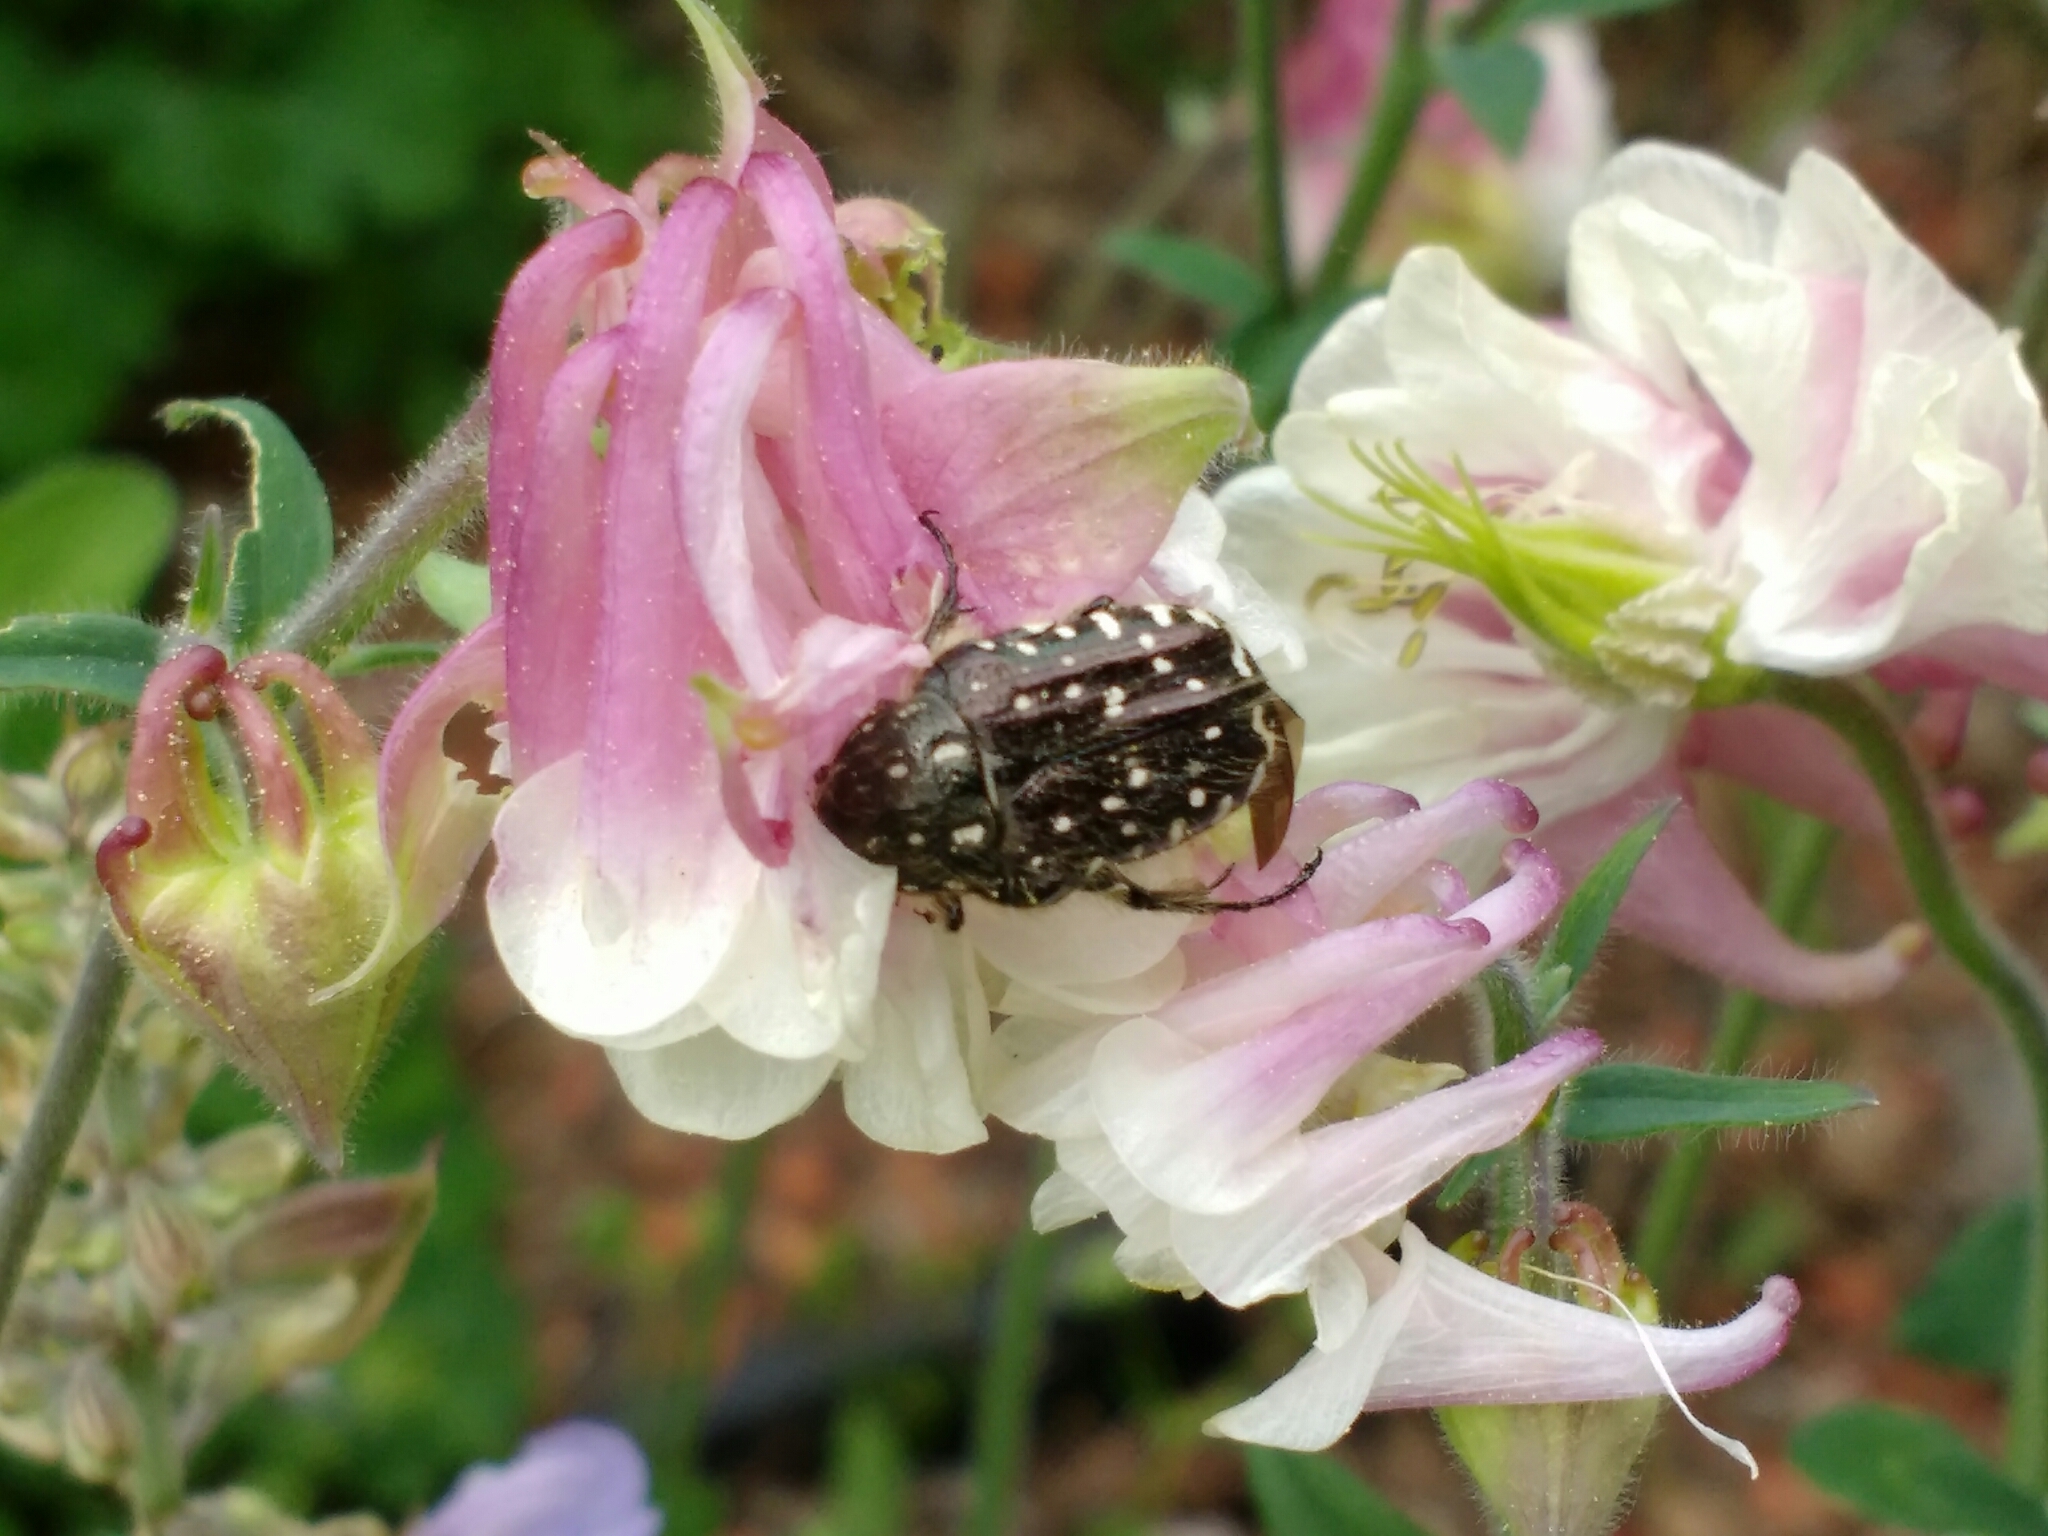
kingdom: Animalia
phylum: Arthropoda
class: Insecta
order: Coleoptera
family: Scarabaeidae
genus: Oxythyrea
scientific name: Oxythyrea funesta
